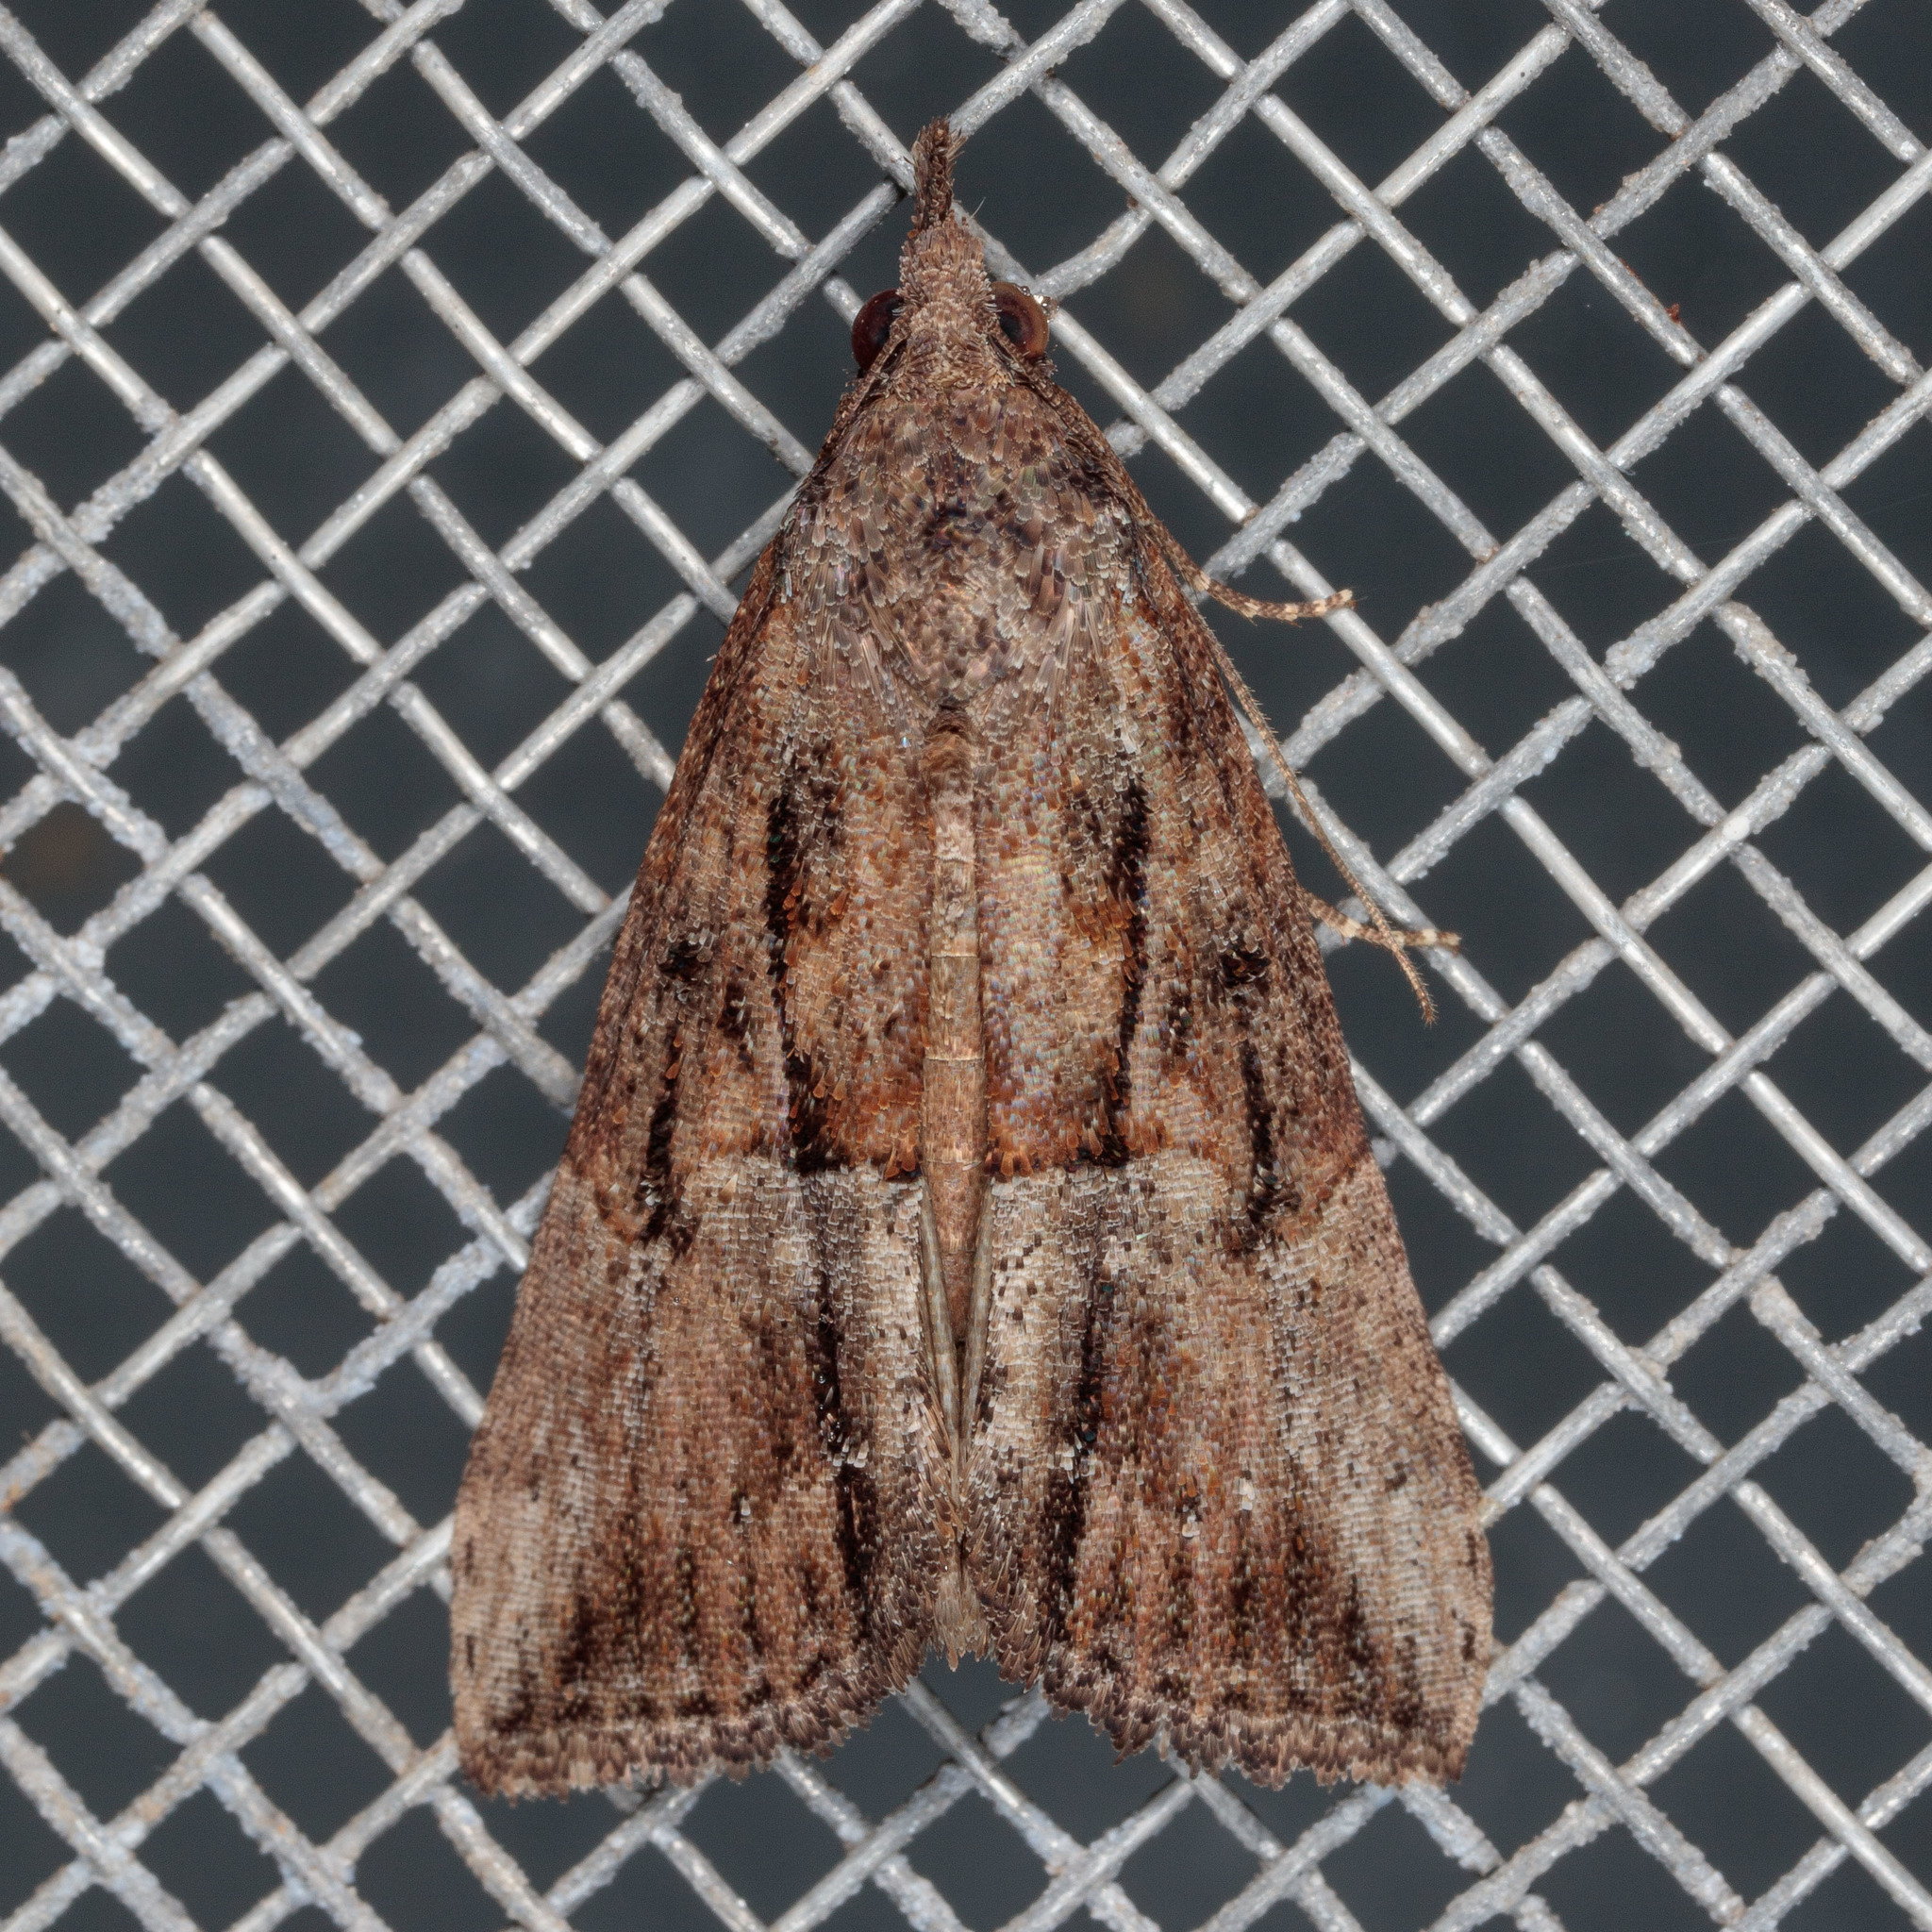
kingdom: Animalia
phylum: Arthropoda
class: Insecta
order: Lepidoptera
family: Erebidae
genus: Hypena
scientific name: Hypena scabra
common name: Green cloverworm
